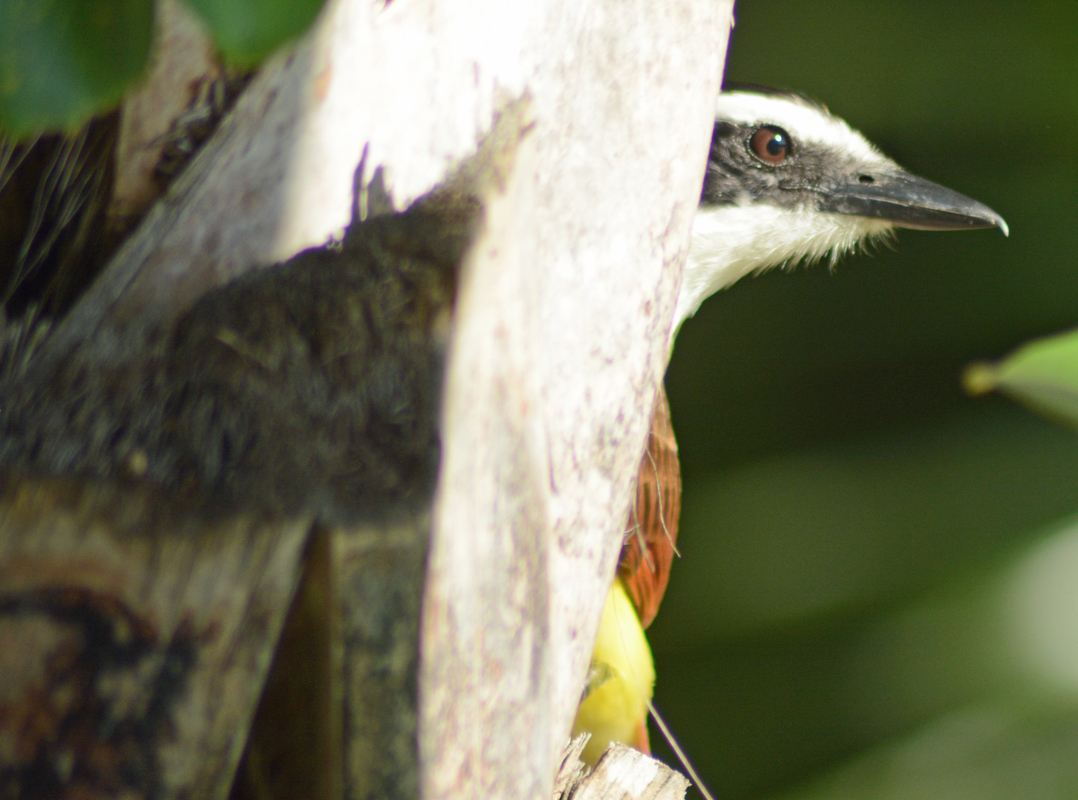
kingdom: Animalia
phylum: Chordata
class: Aves
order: Passeriformes
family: Tyrannidae
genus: Pitangus
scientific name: Pitangus sulphuratus
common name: Great kiskadee
